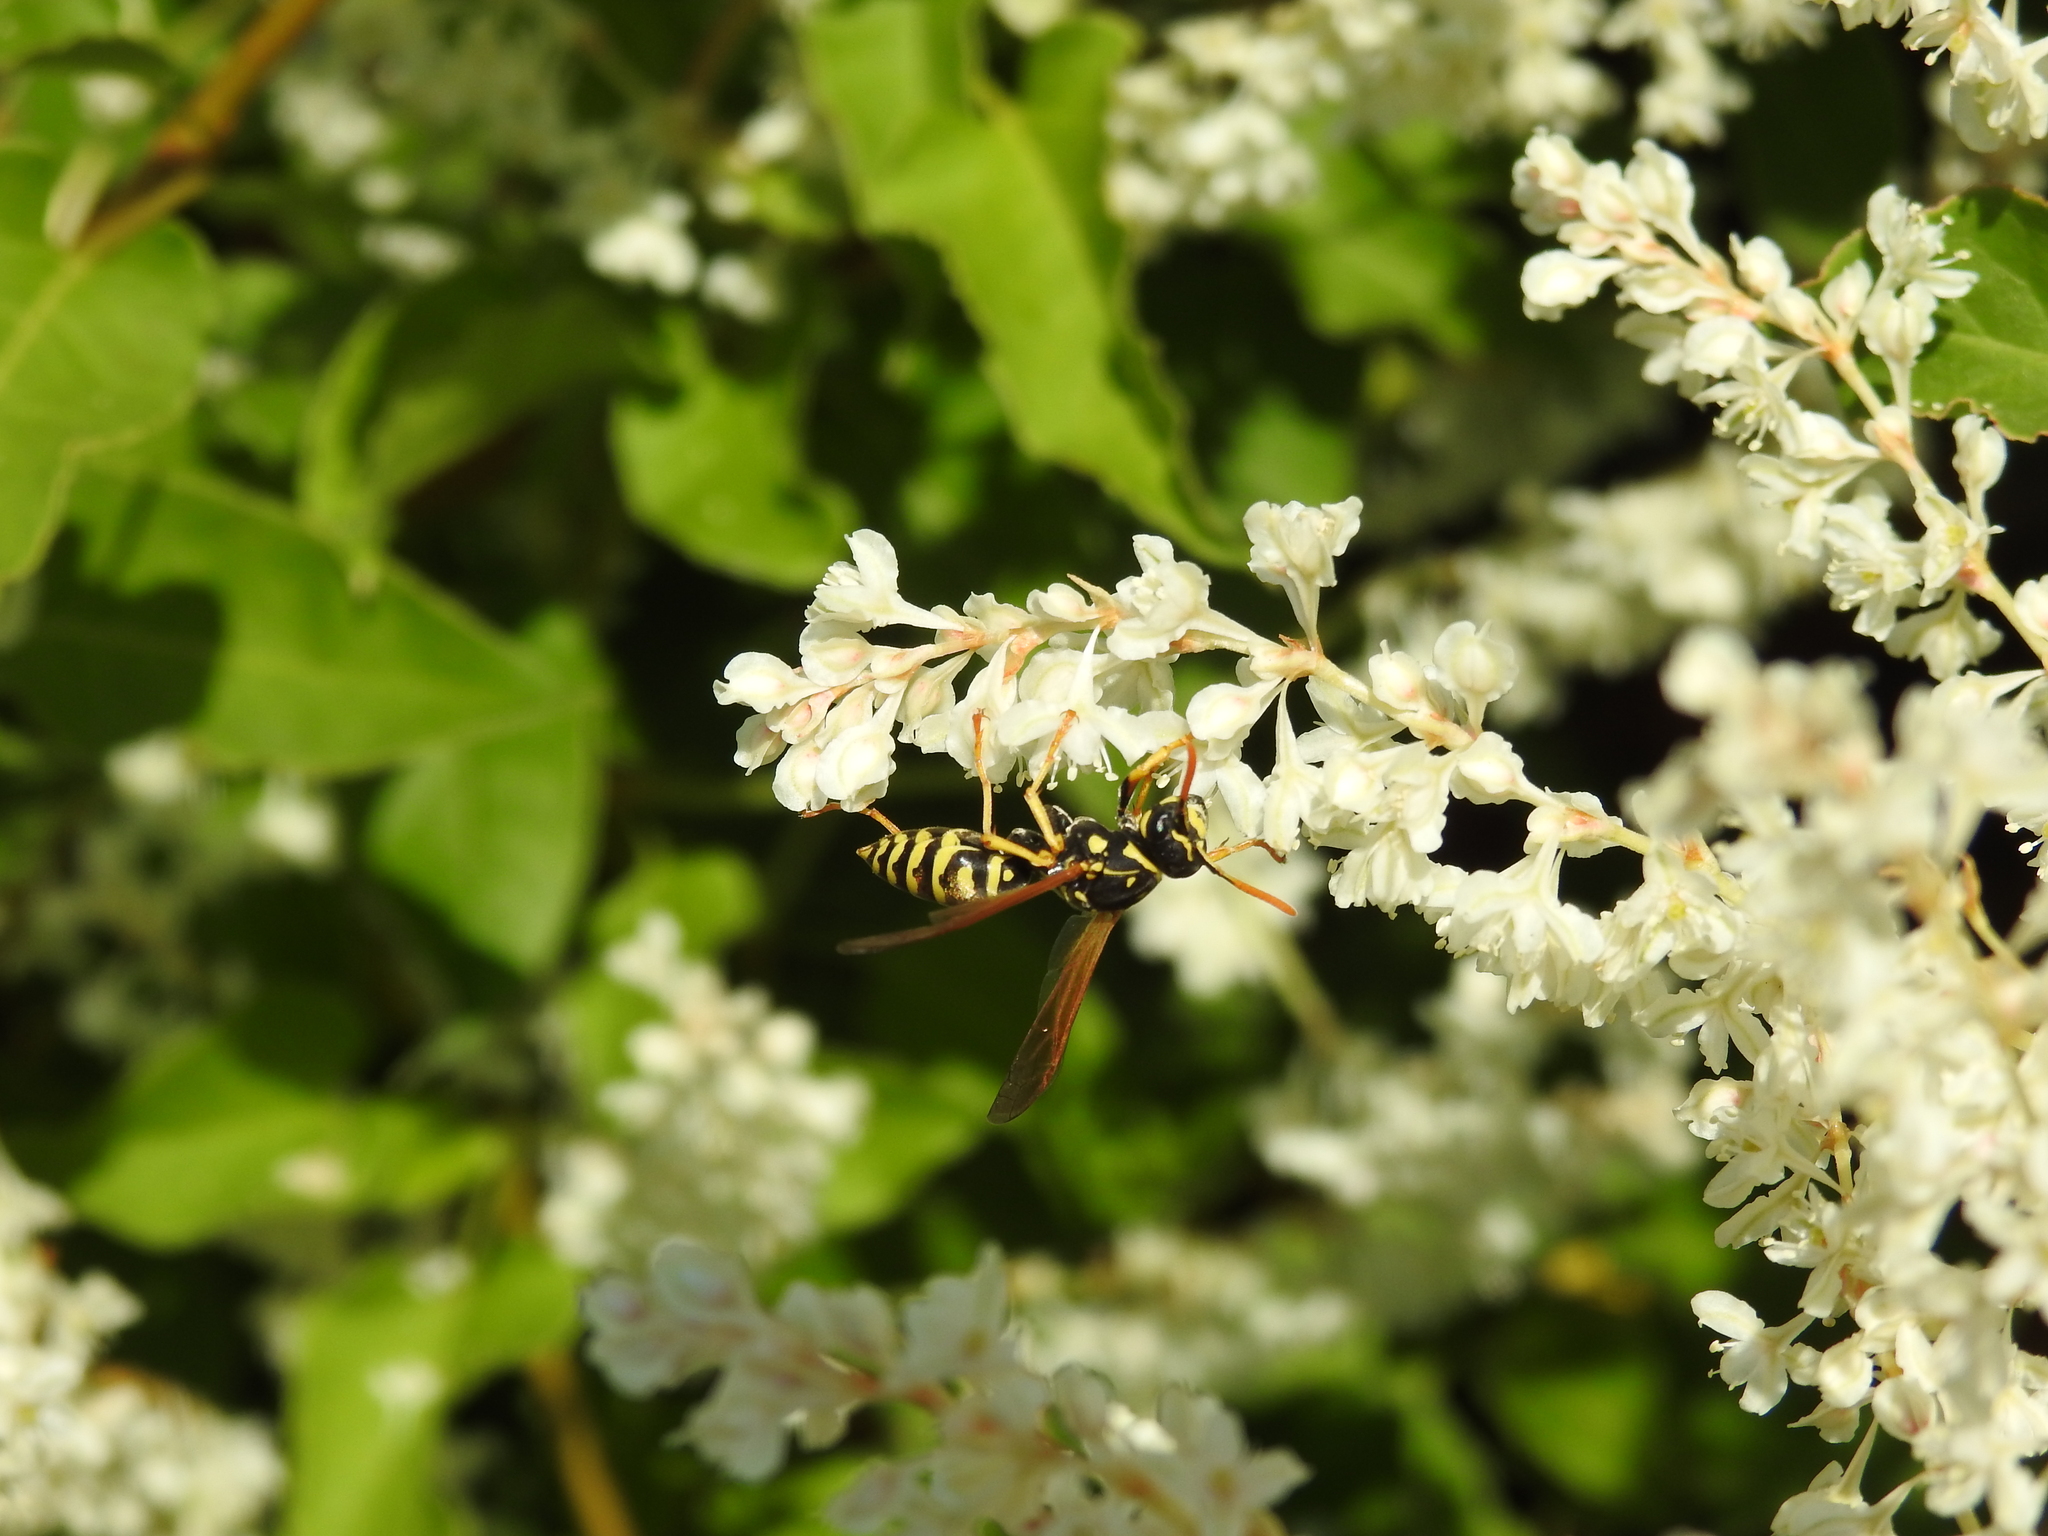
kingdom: Animalia
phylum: Arthropoda
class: Insecta
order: Hymenoptera
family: Eumenidae
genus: Polistes
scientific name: Polistes dominula
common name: Paper wasp
